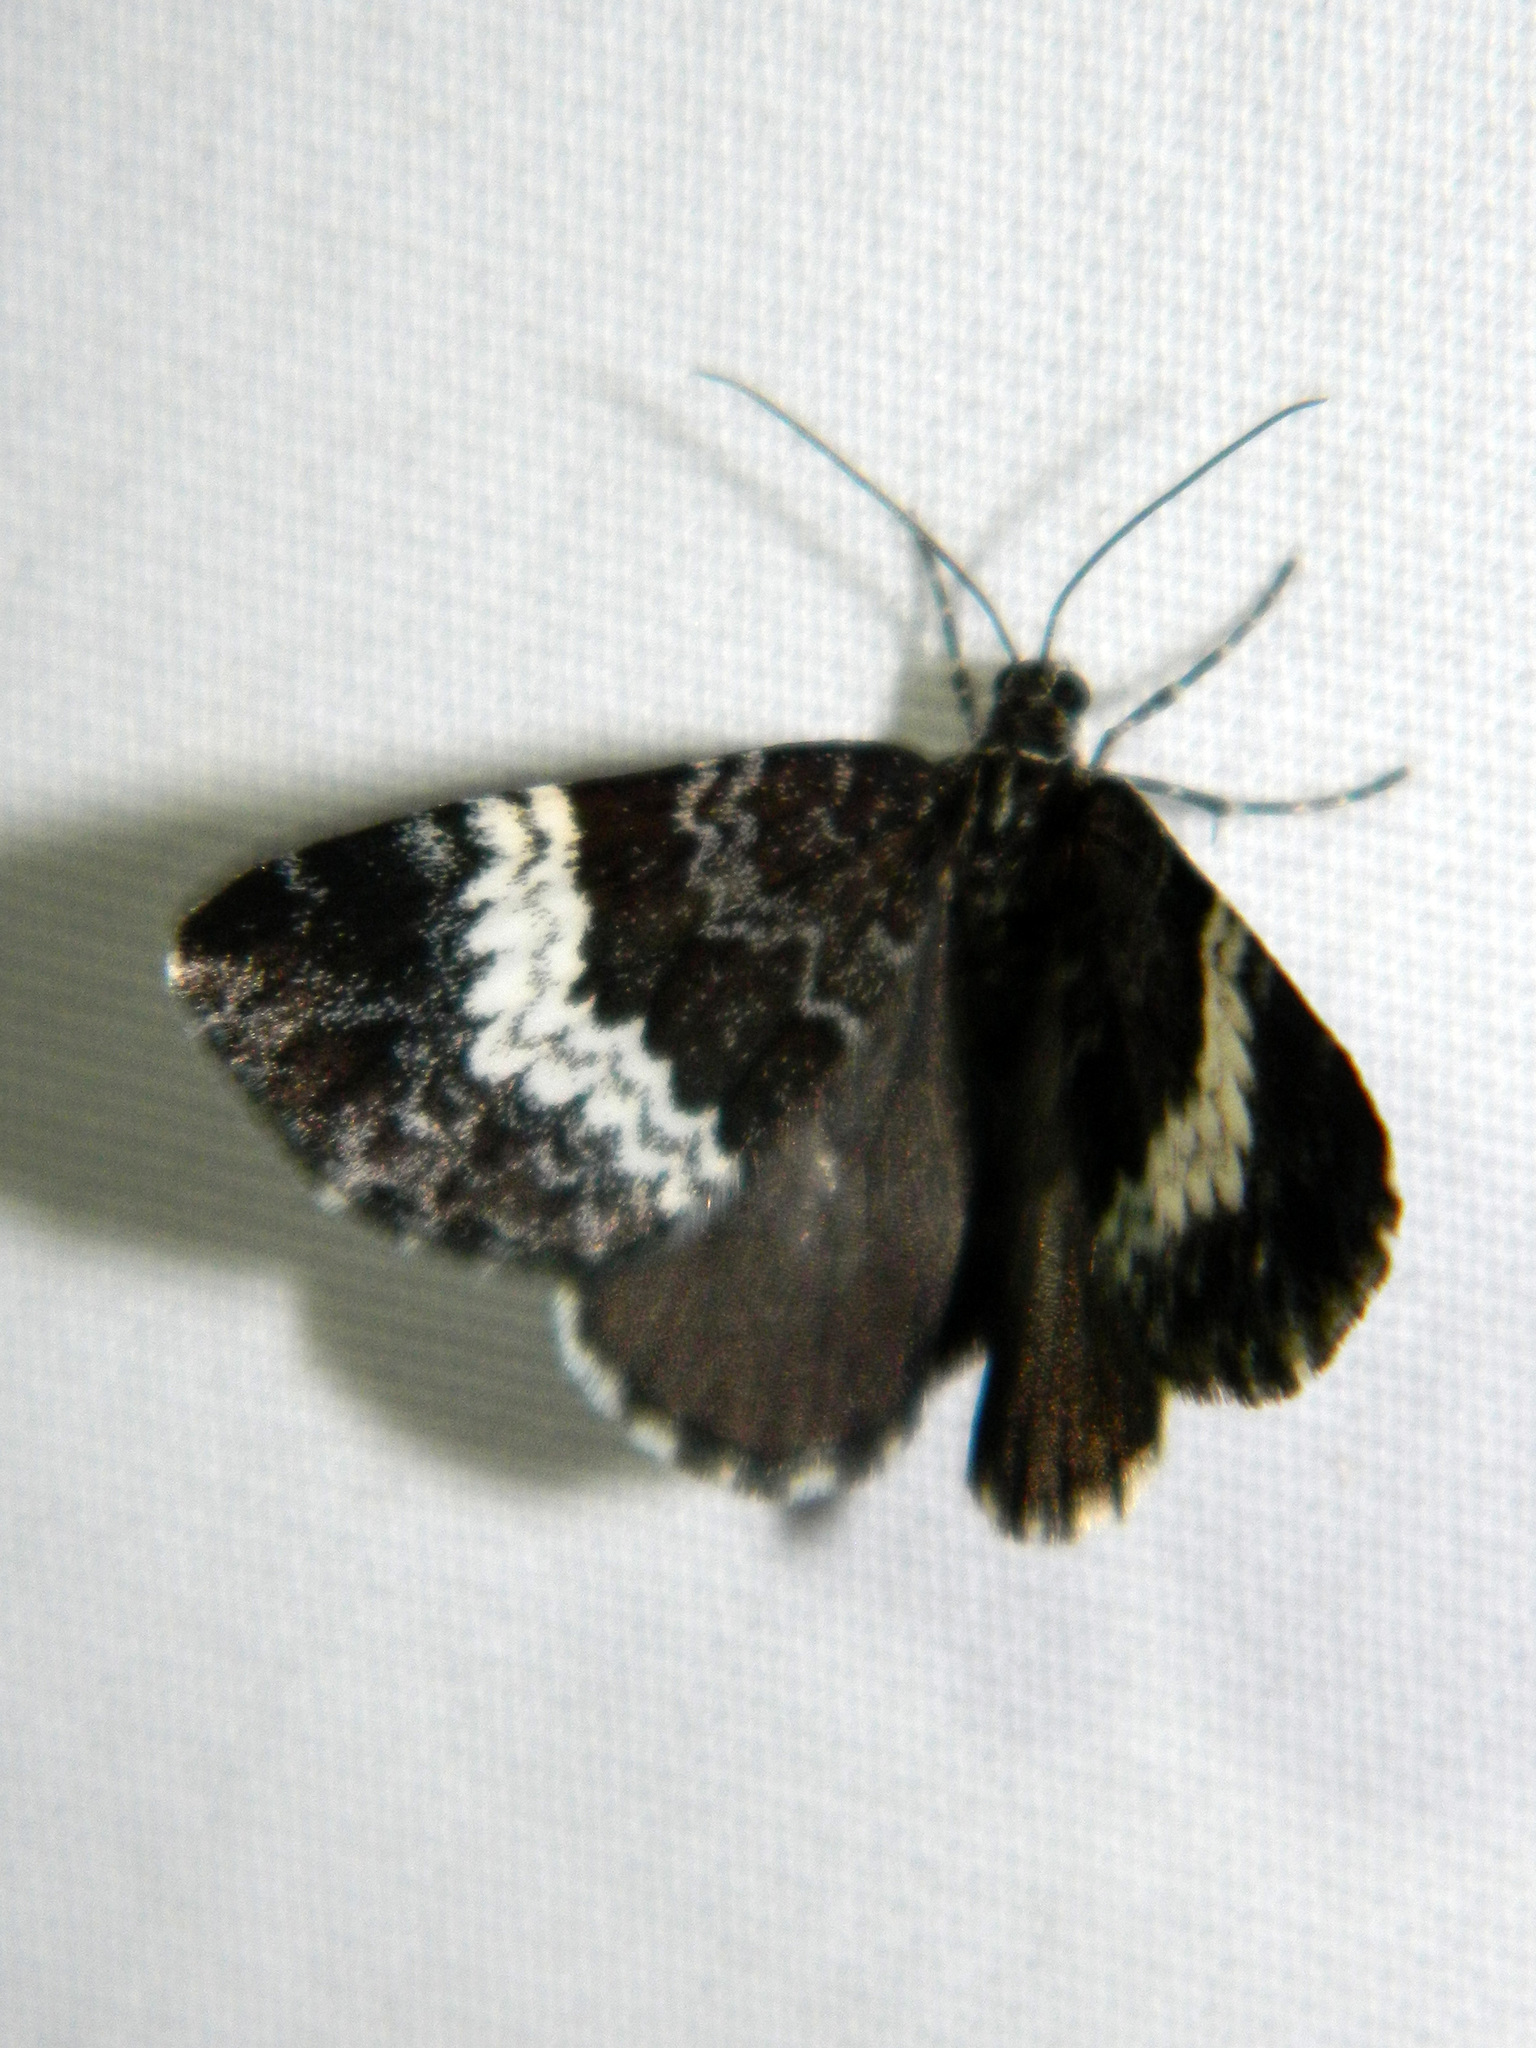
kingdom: Animalia
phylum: Arthropoda
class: Insecta
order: Lepidoptera
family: Geometridae
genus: Spargania
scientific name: Spargania luctuata
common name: White-banded carpet
